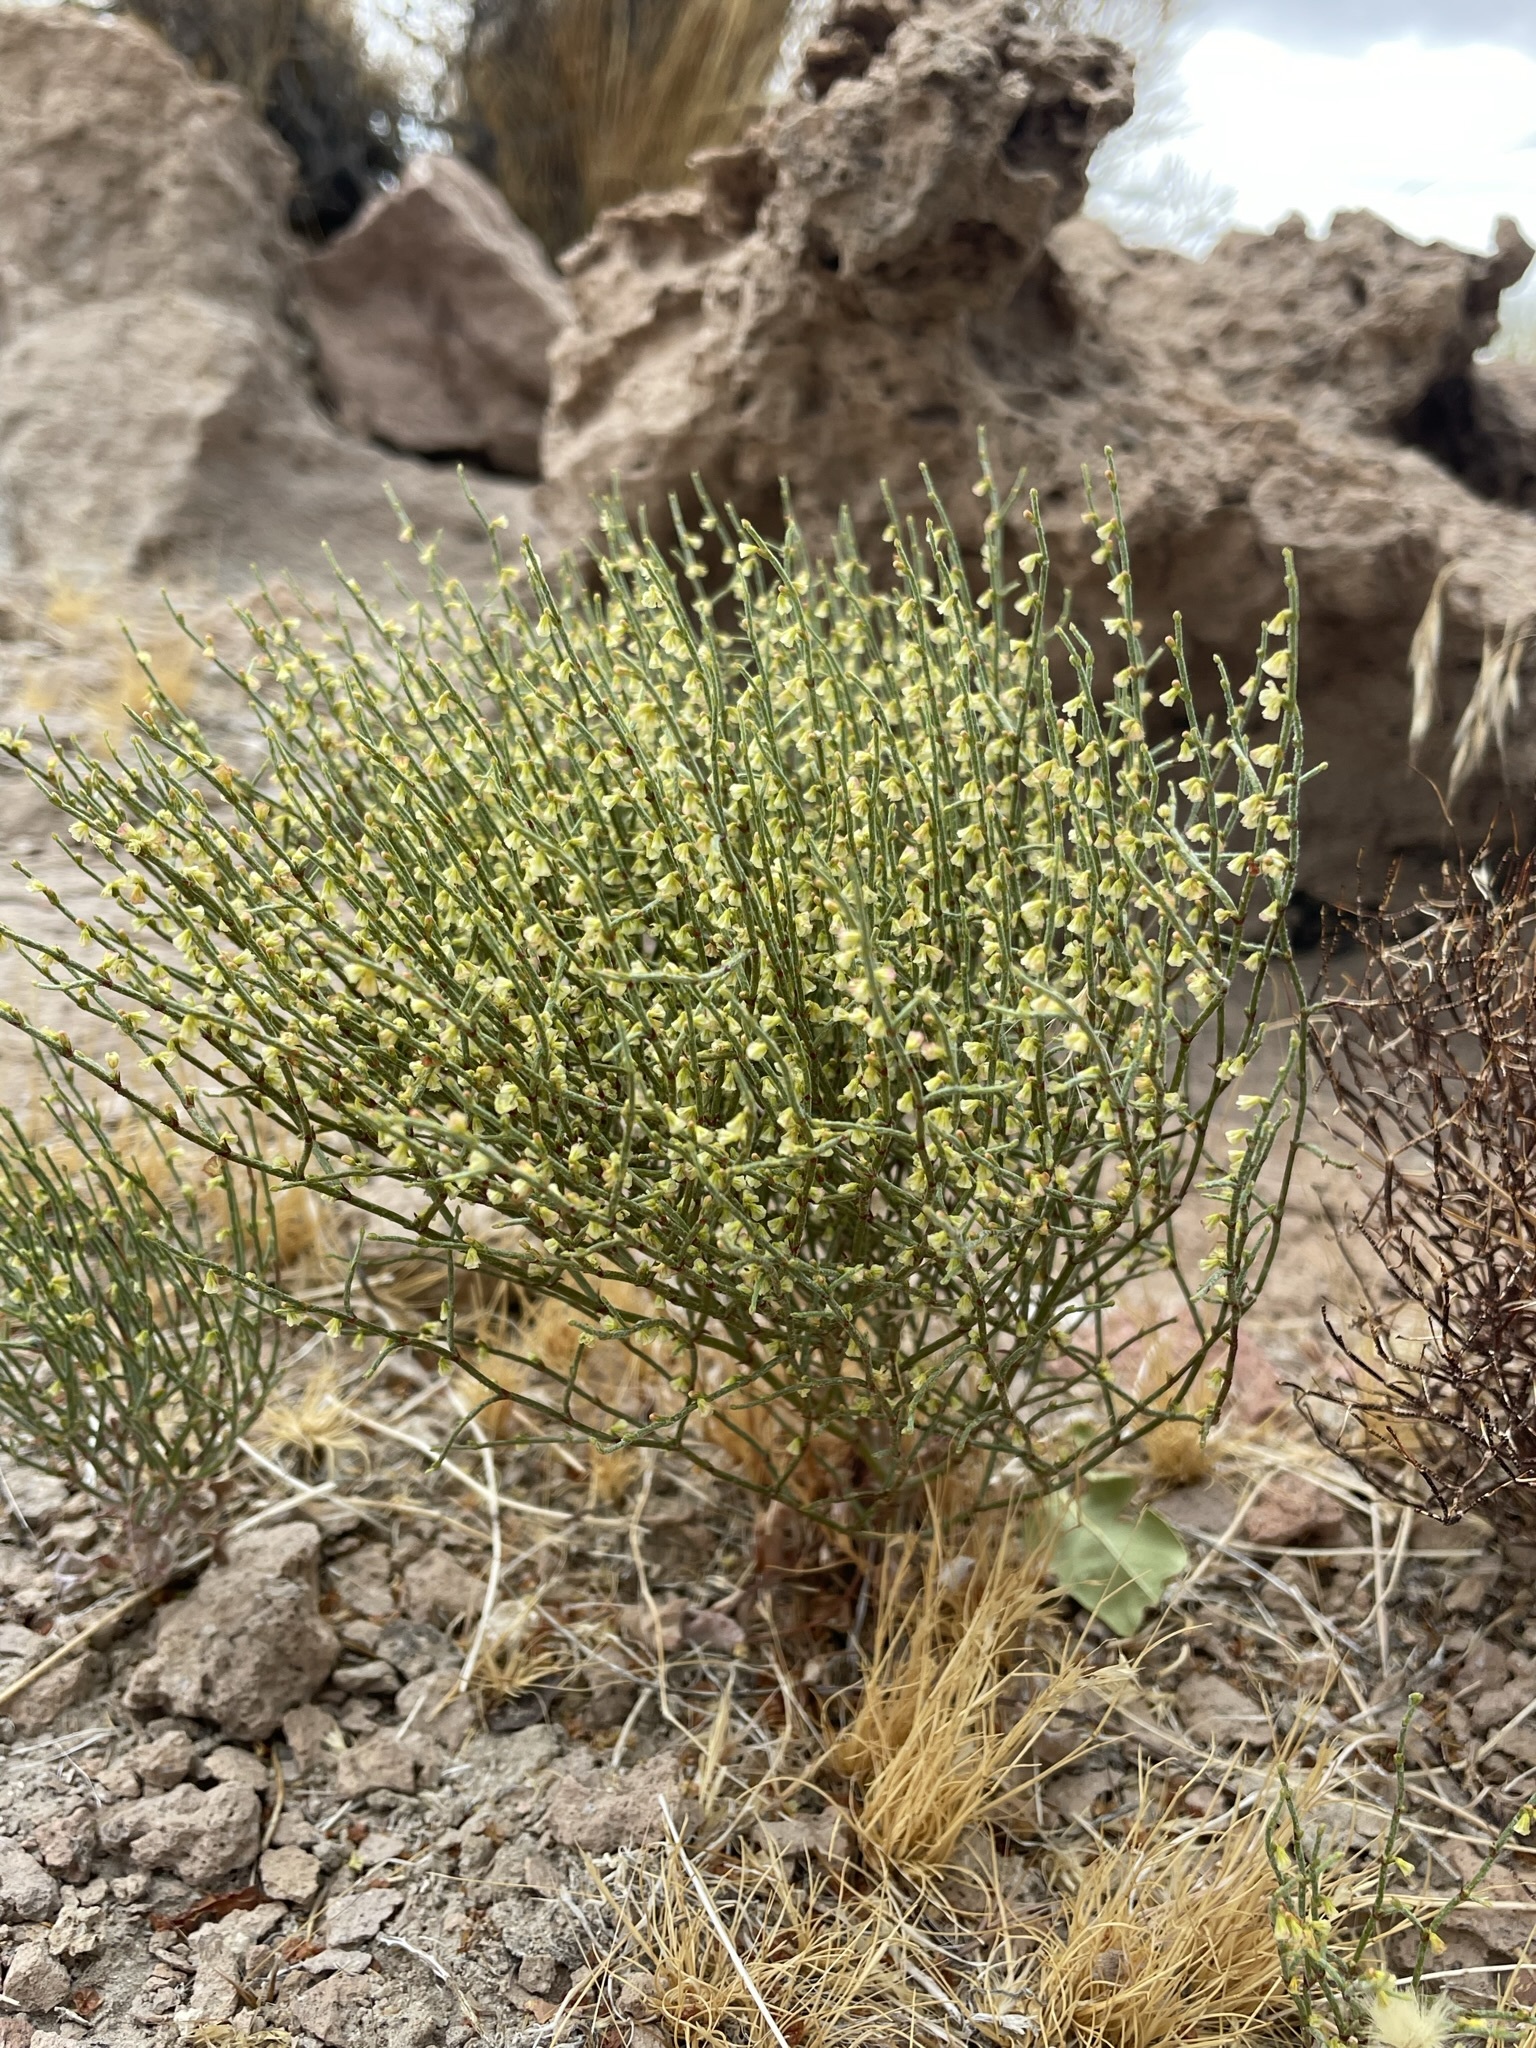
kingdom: Plantae
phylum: Tracheophyta
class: Magnoliopsida
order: Caryophyllales
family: Polygonaceae
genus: Eriogonum
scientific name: Eriogonum nidularium
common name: Bird's-nest wild buckwheat
